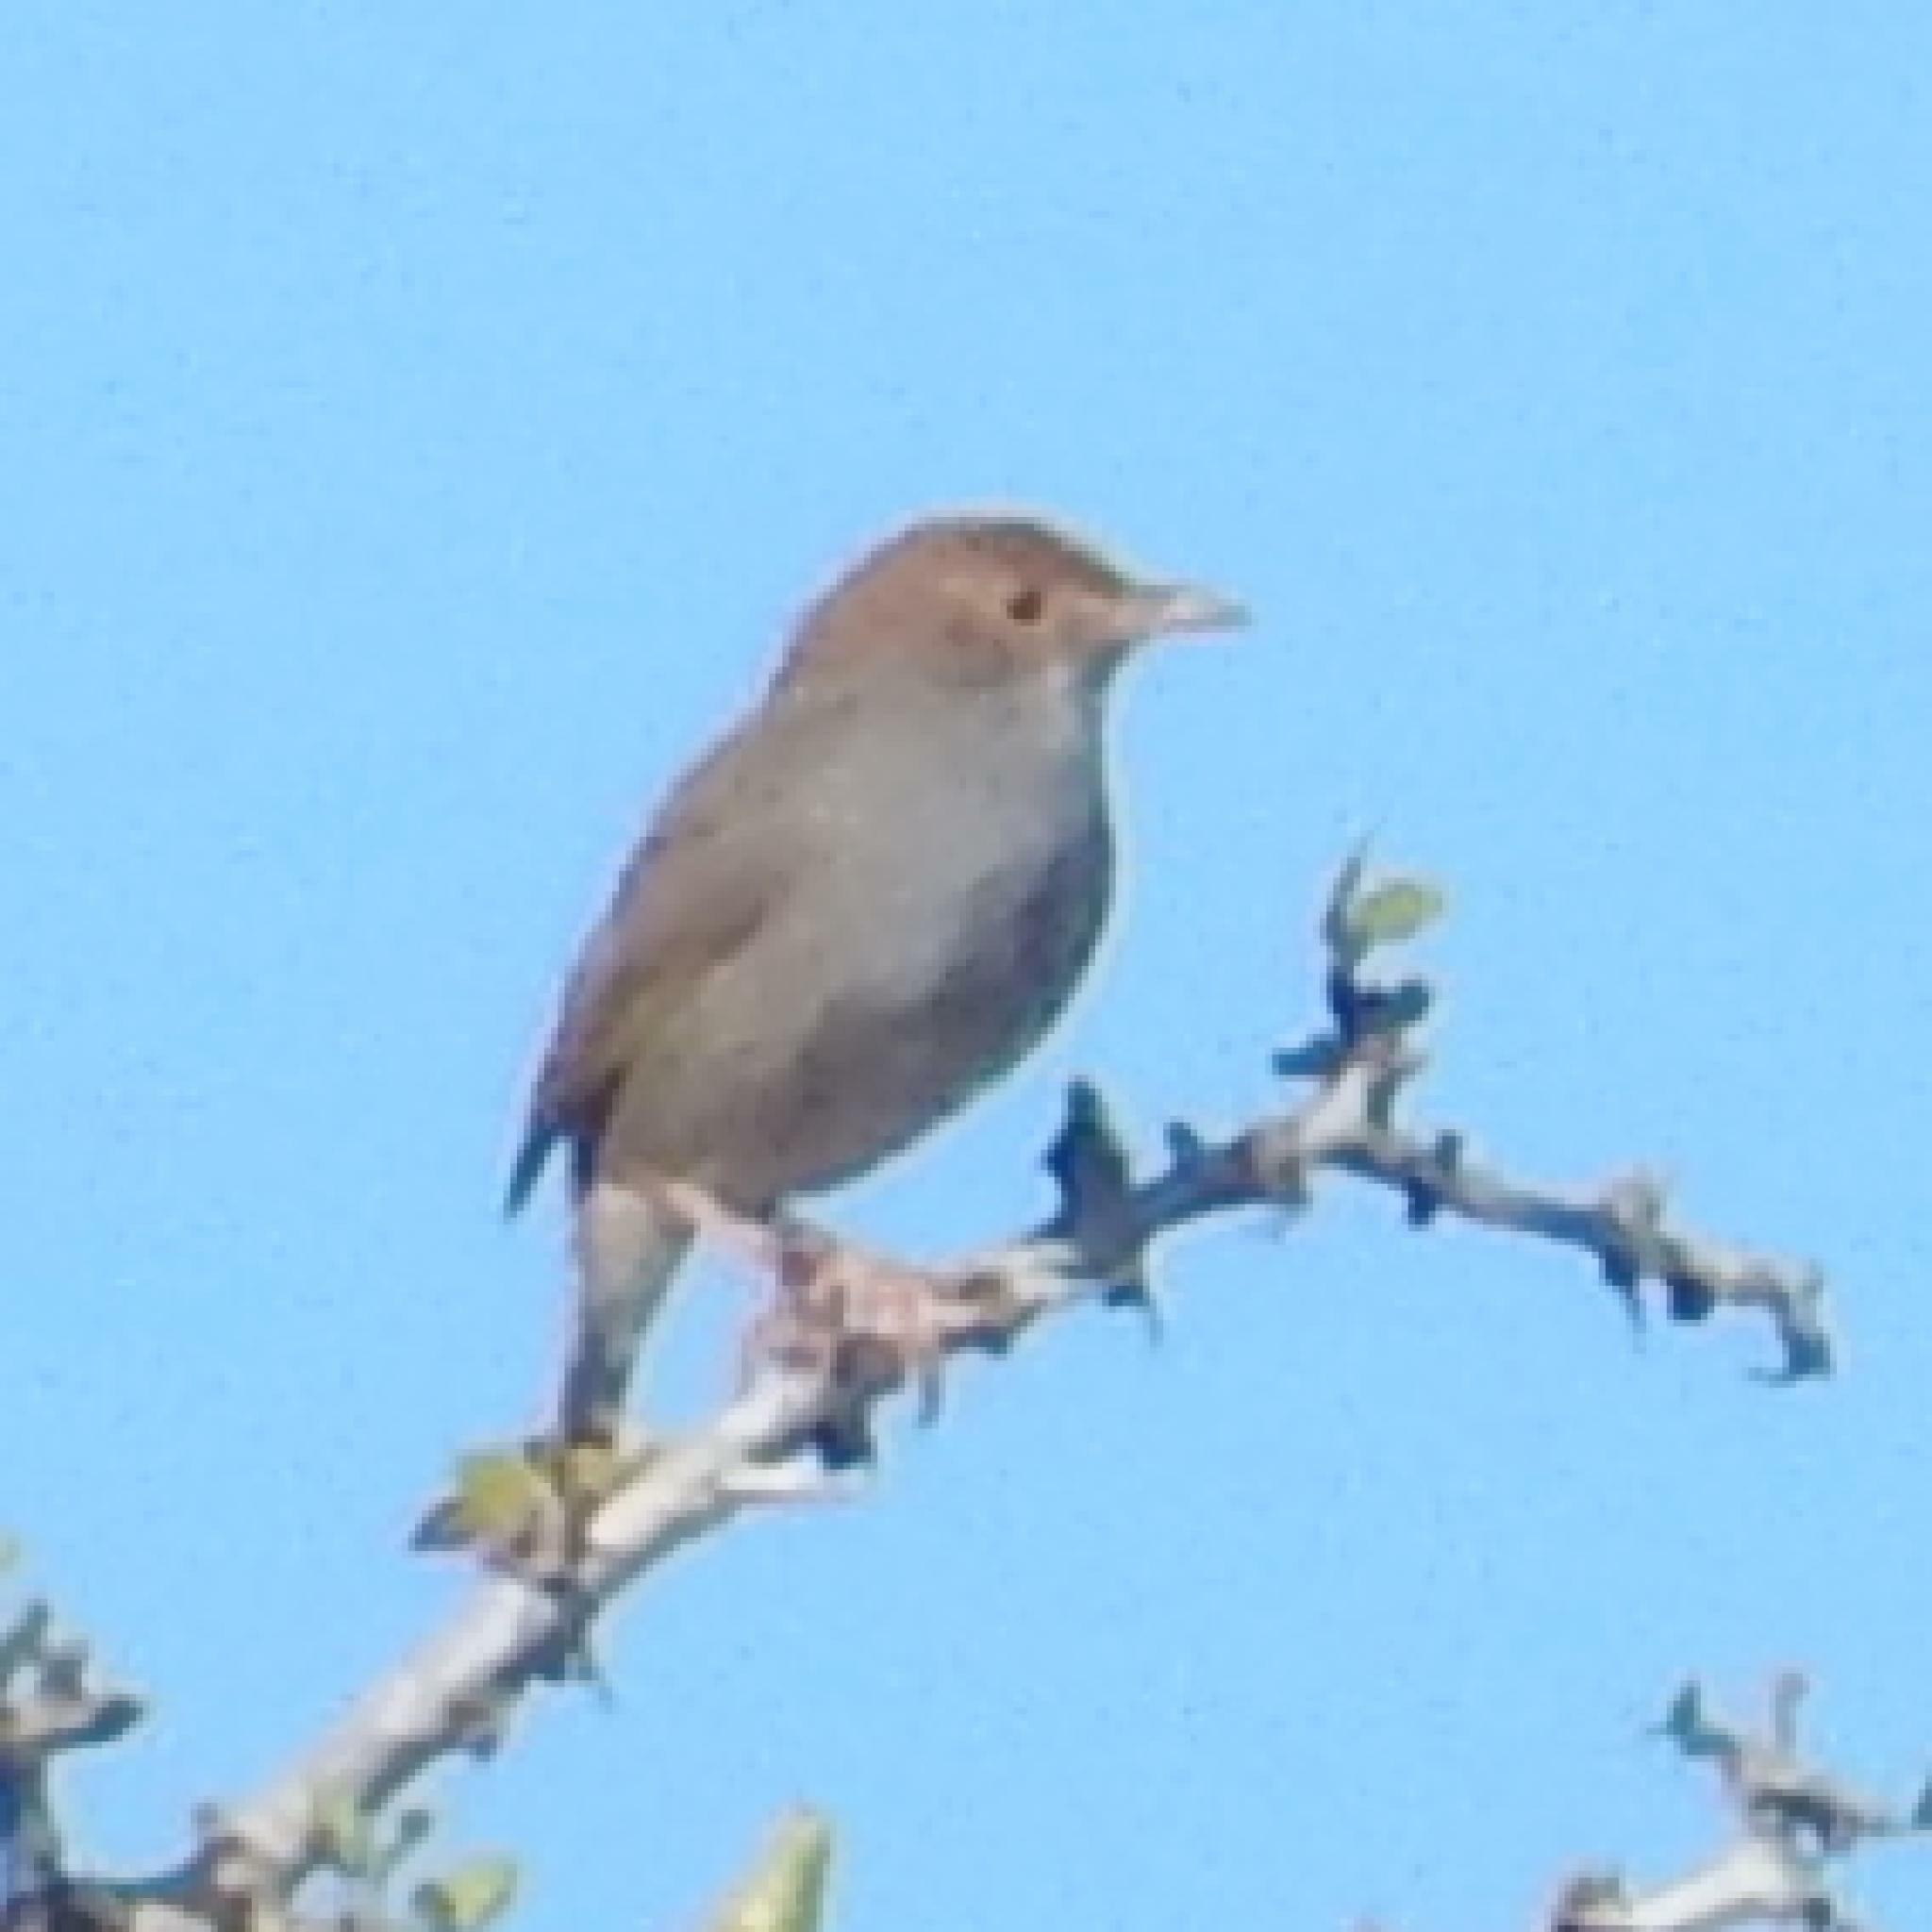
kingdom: Animalia
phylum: Chordata
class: Aves
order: Passeriformes
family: Cisticolidae
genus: Cisticola
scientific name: Cisticola fulvicapilla
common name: Neddicky
